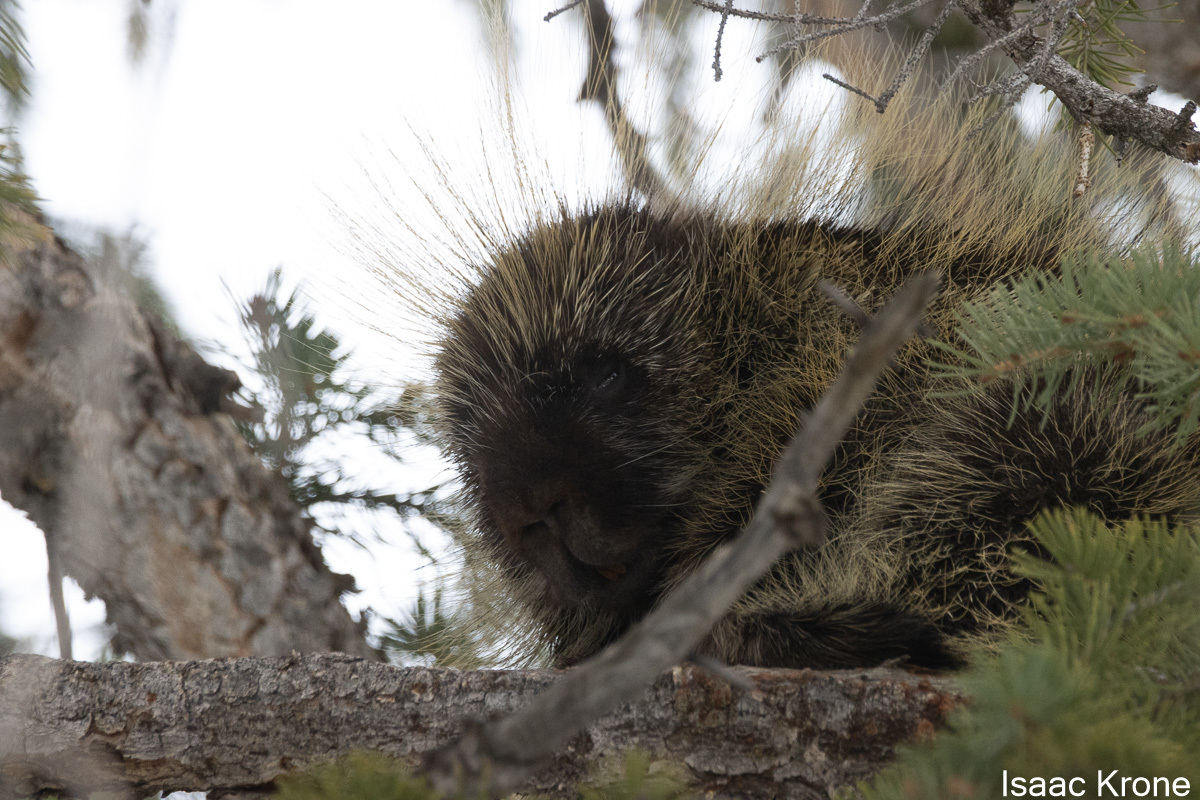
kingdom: Animalia
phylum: Chordata
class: Mammalia
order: Rodentia
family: Erethizontidae
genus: Erethizon
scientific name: Erethizon dorsatus
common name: North american porcupine
